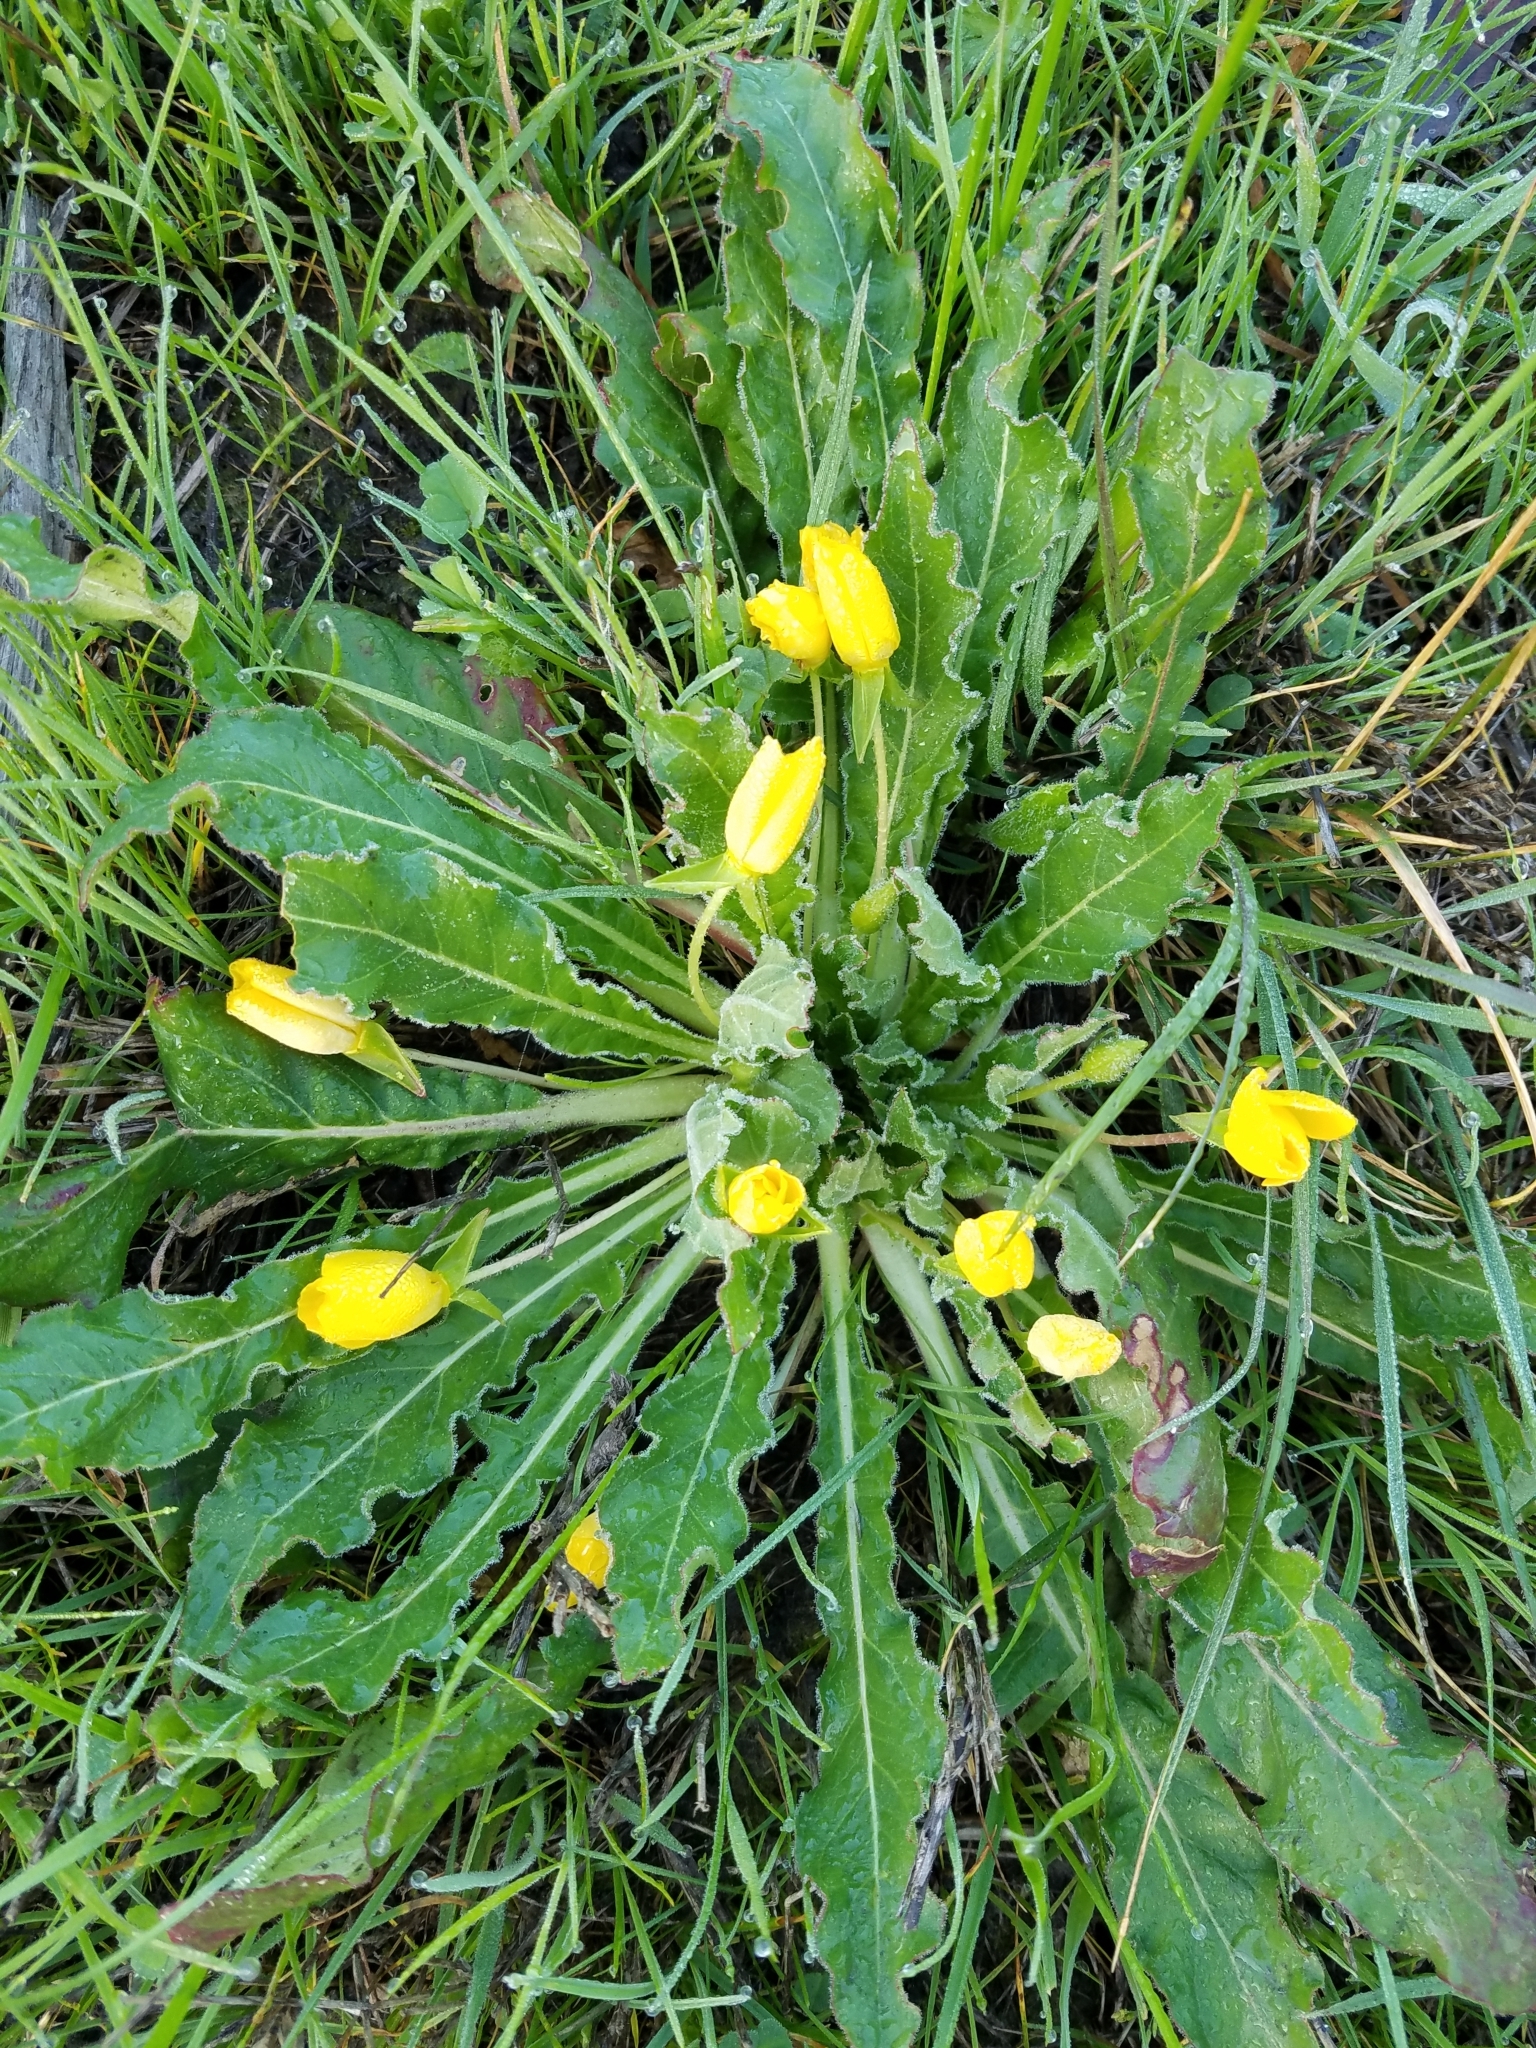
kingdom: Plantae
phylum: Tracheophyta
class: Magnoliopsida
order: Myrtales
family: Onagraceae
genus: Taraxia
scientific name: Taraxia ovata
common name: Goldeneggs
